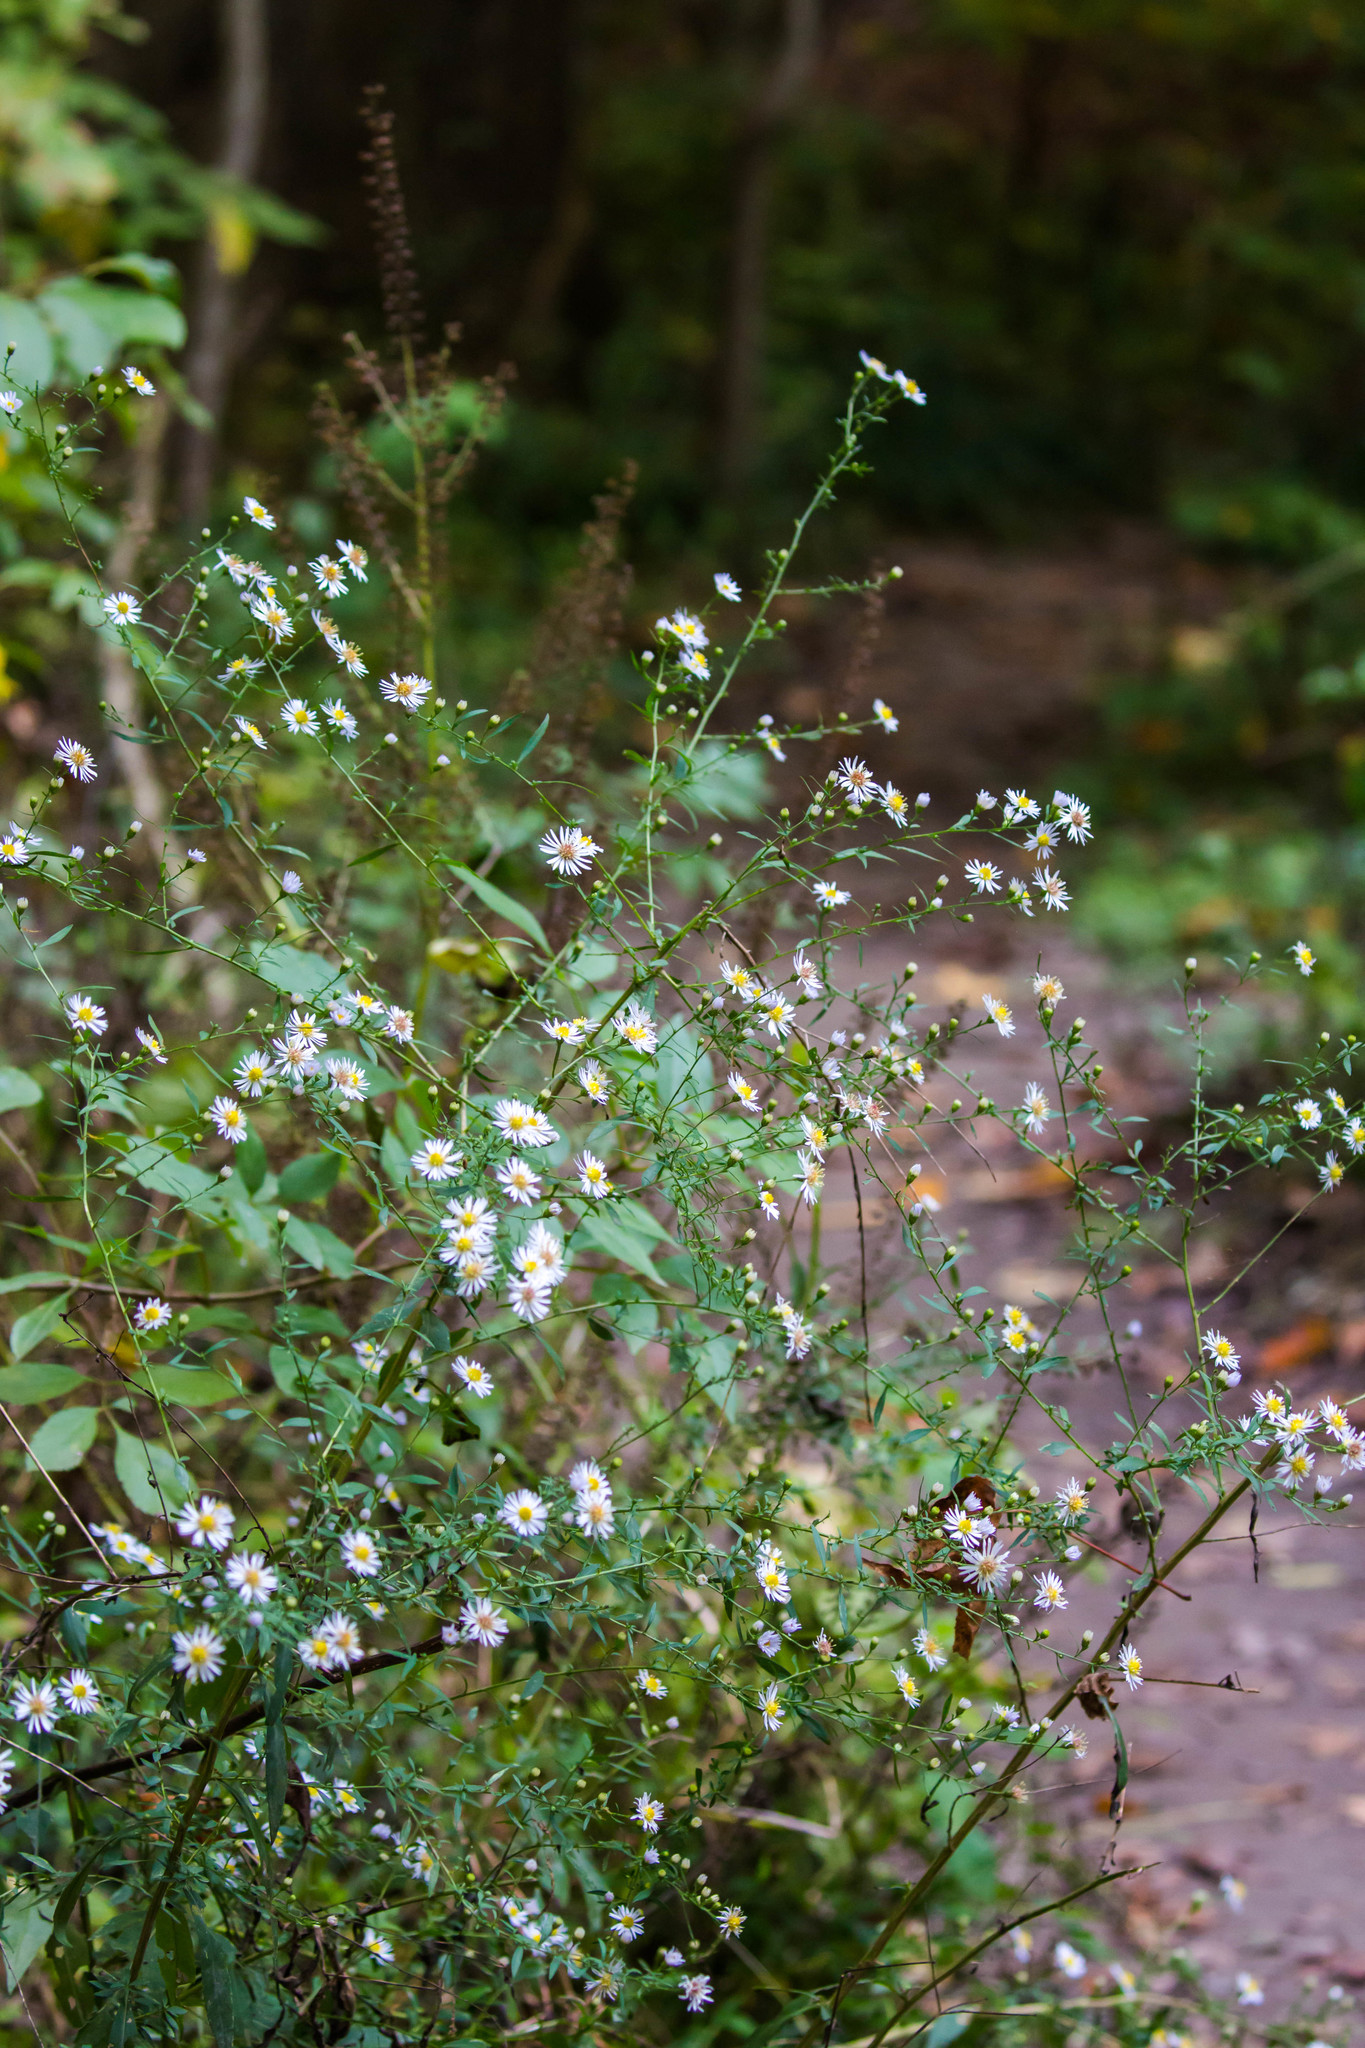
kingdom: Plantae
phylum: Tracheophyta
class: Magnoliopsida
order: Asterales
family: Asteraceae
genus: Symphyotrichum
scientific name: Symphyotrichum lanceolatum
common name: Panicled aster
